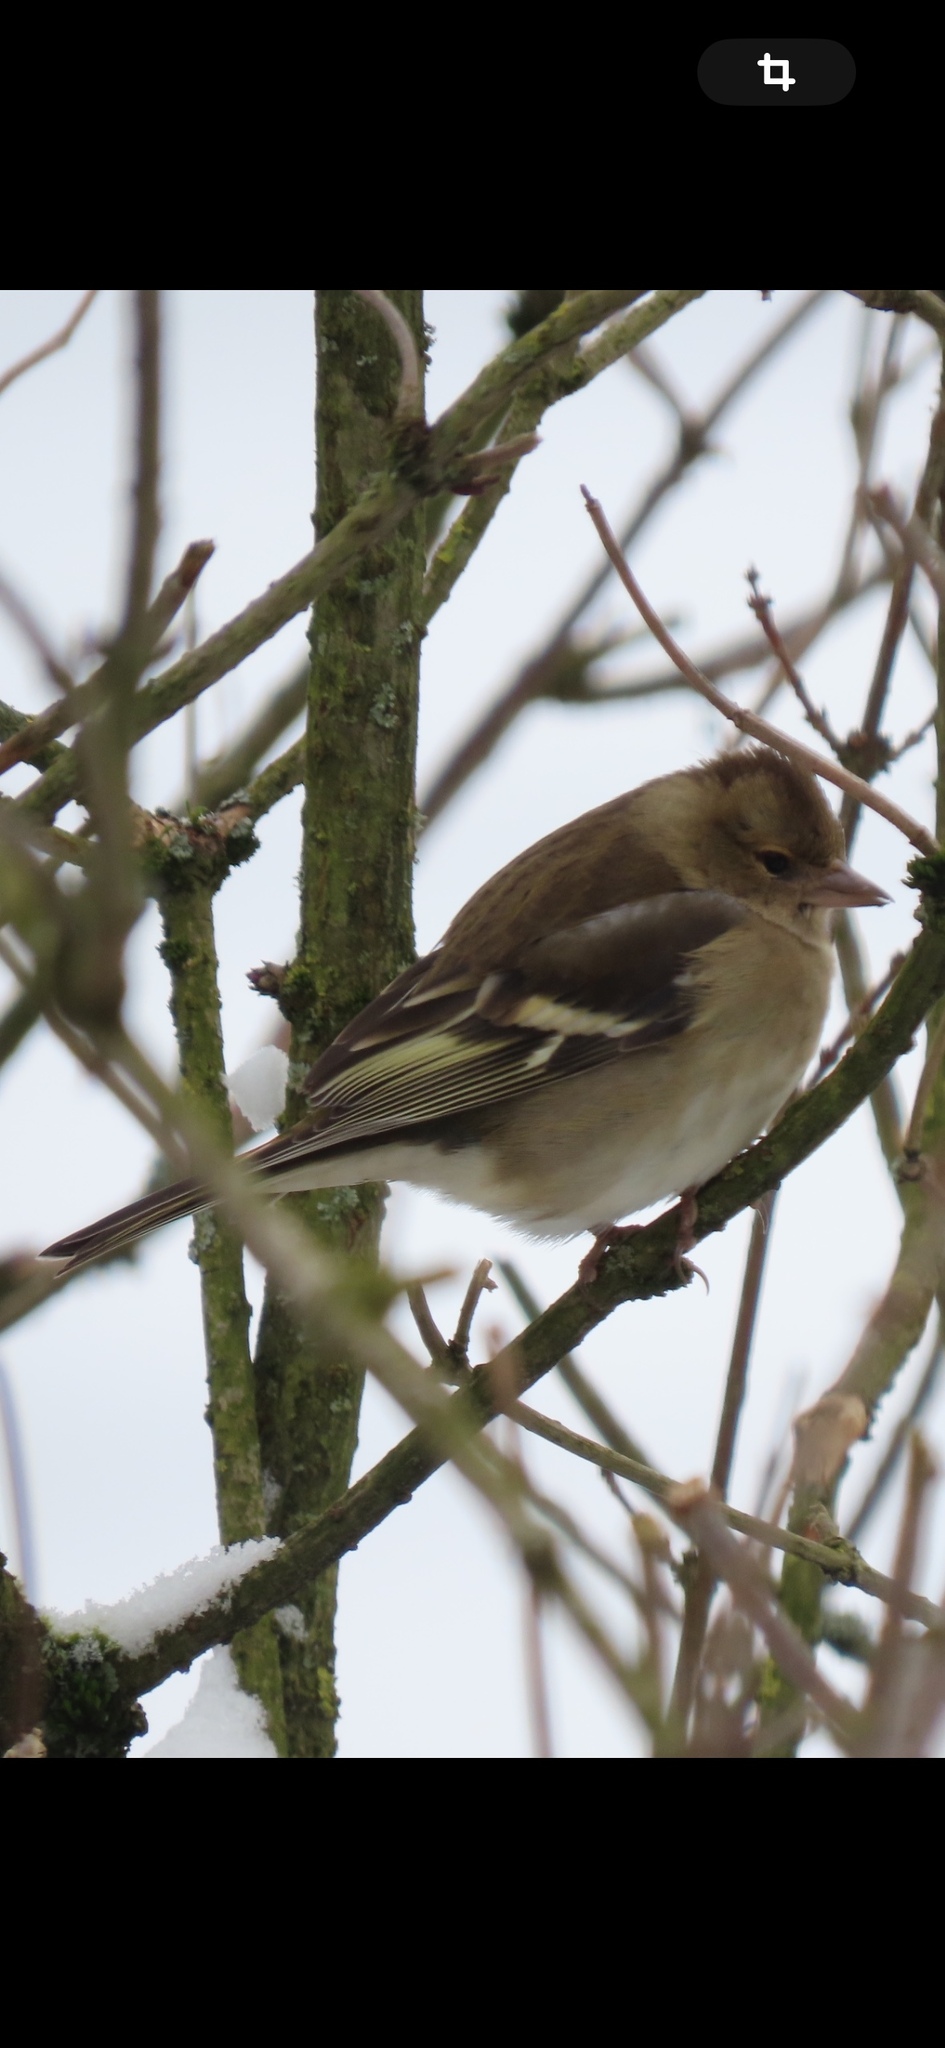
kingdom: Animalia
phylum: Chordata
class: Aves
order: Passeriformes
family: Fringillidae
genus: Fringilla
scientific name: Fringilla coelebs
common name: Common chaffinch
